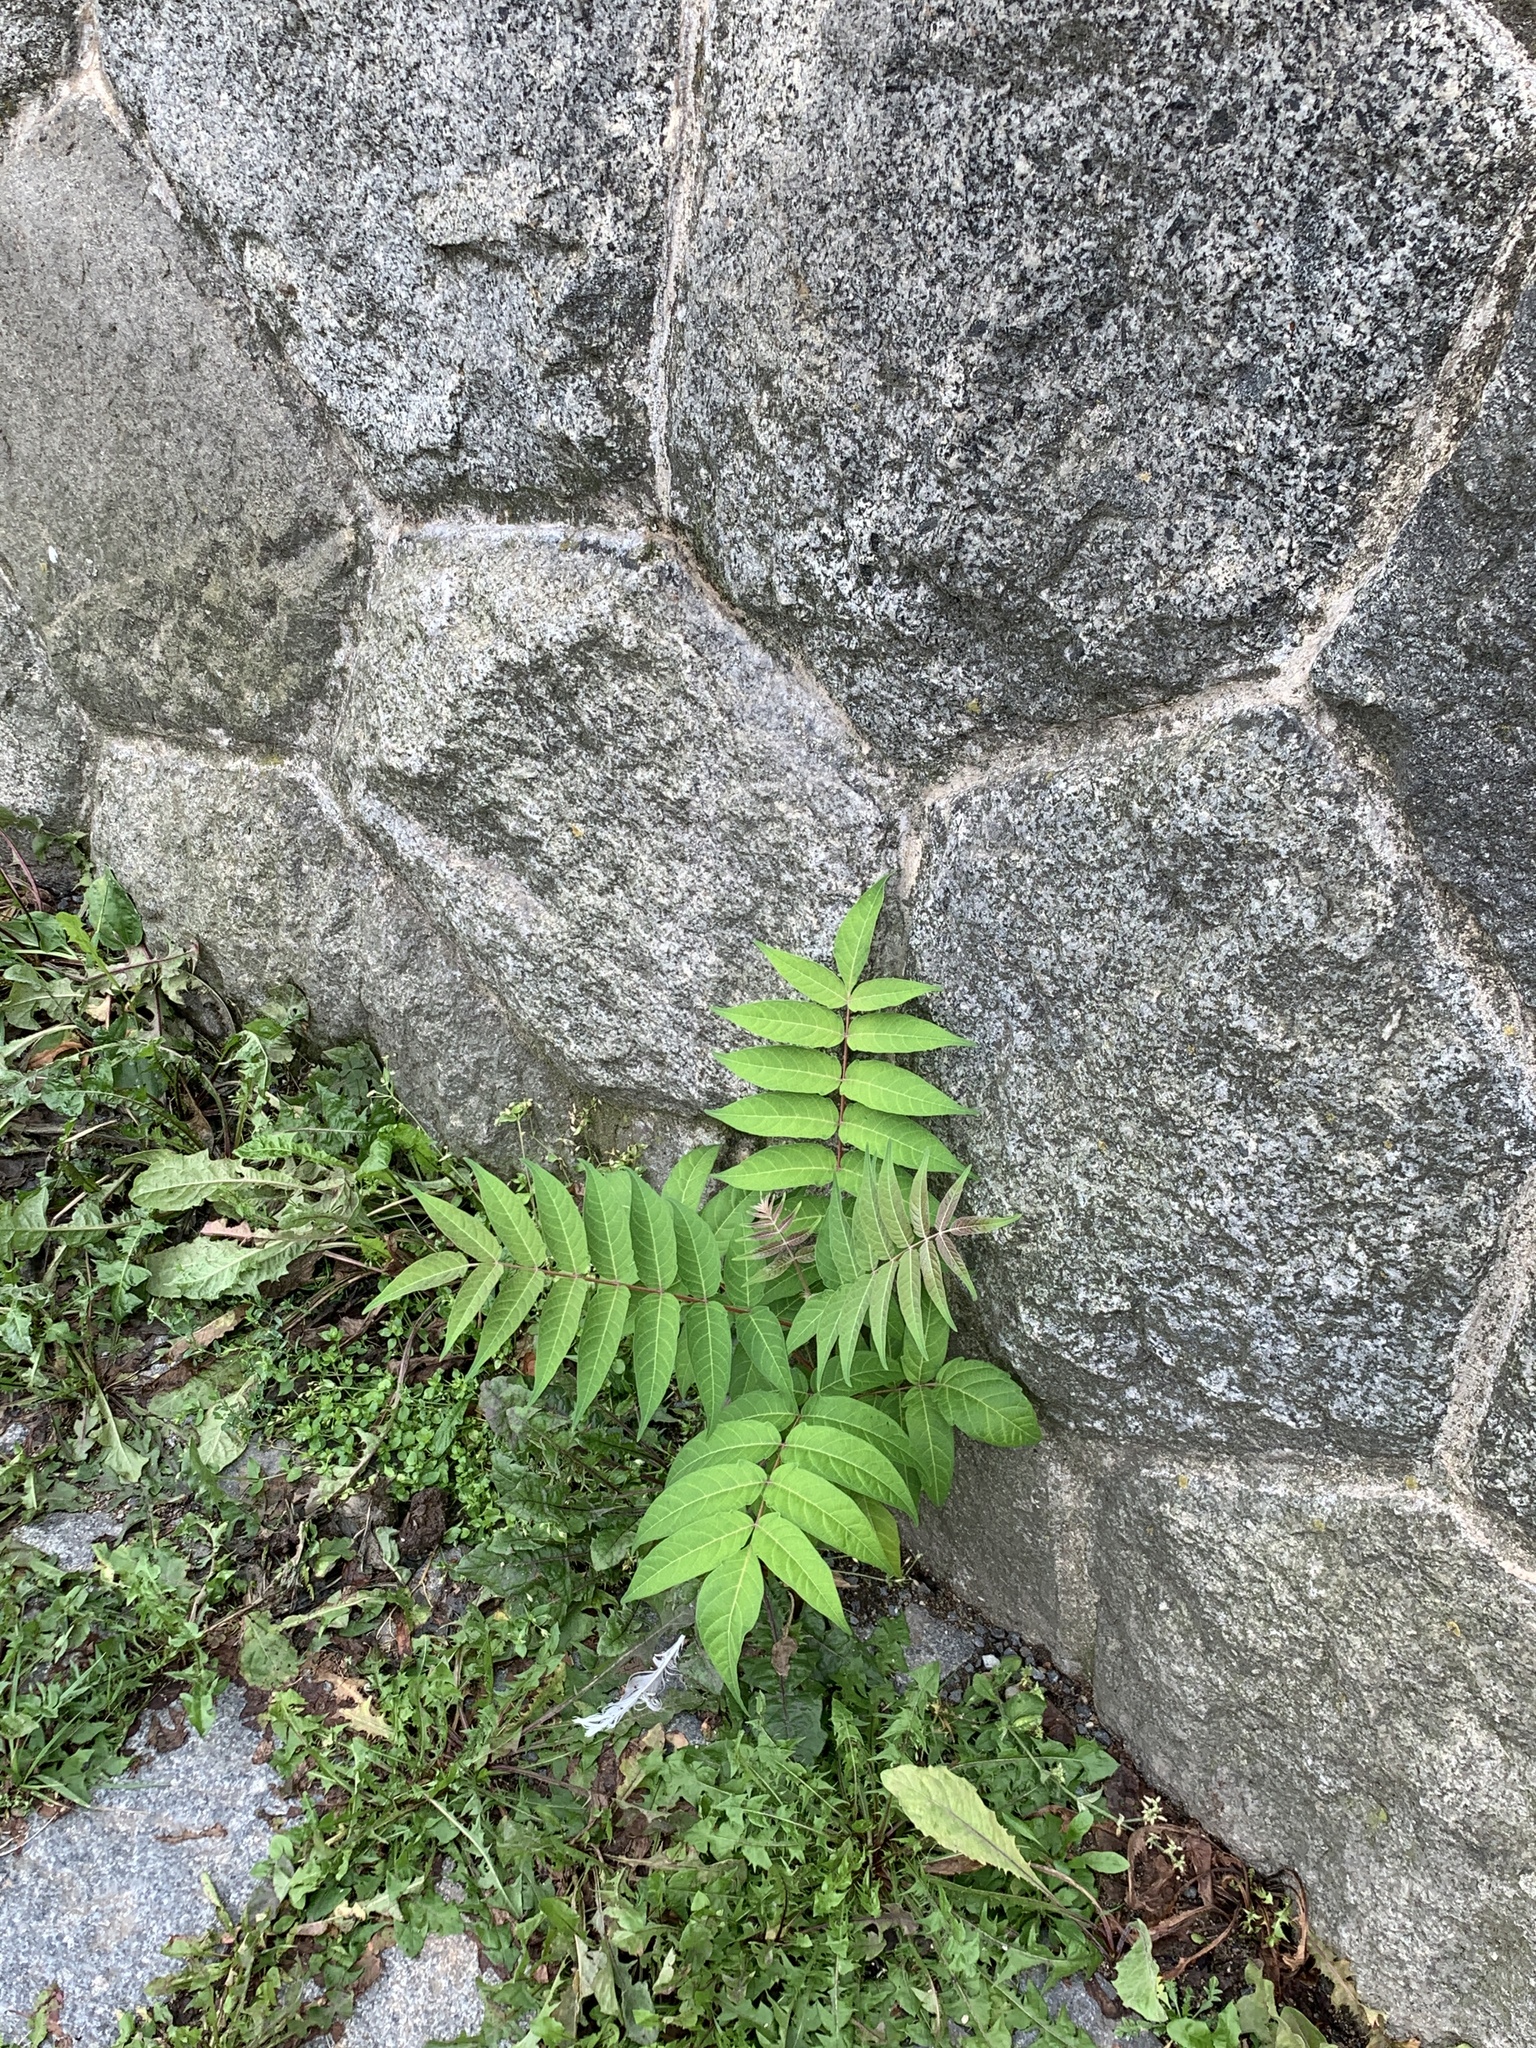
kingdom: Plantae
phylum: Tracheophyta
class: Magnoliopsida
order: Sapindales
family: Simaroubaceae
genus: Ailanthus
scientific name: Ailanthus altissima
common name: Tree-of-heaven
